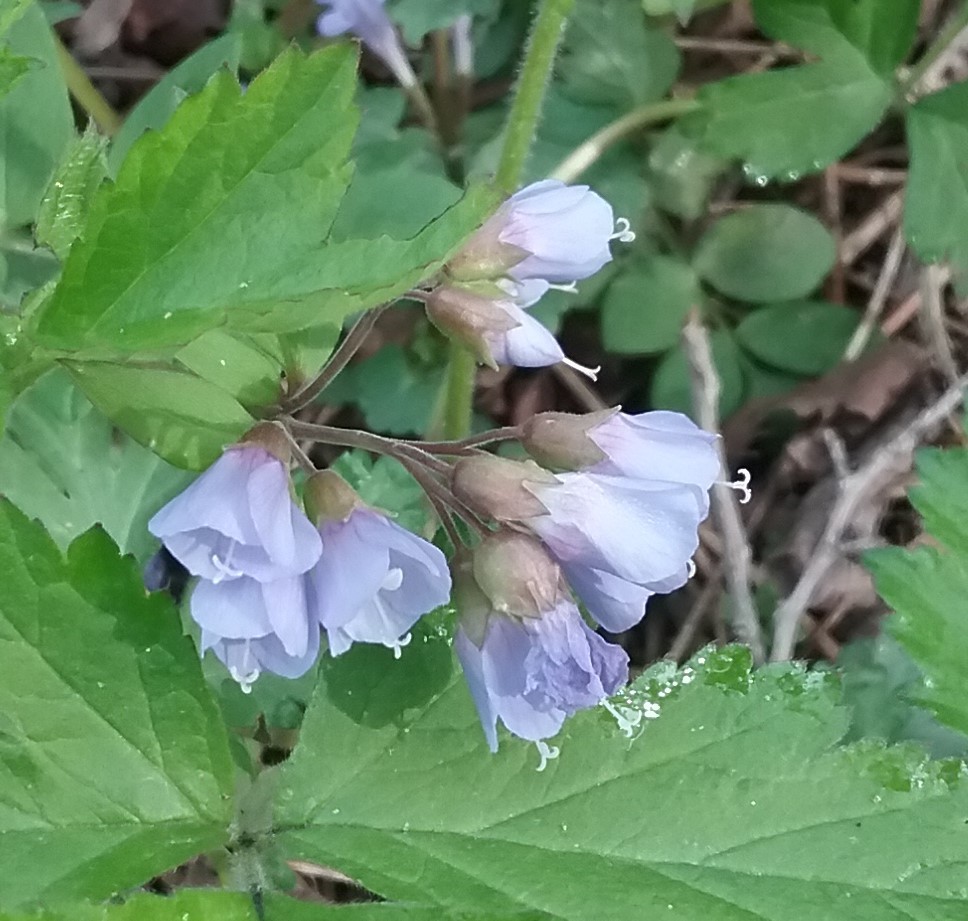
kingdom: Plantae
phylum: Tracheophyta
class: Magnoliopsida
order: Ericales
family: Polemoniaceae
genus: Polemonium
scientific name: Polemonium reptans
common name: Creeping jacob's-ladder
